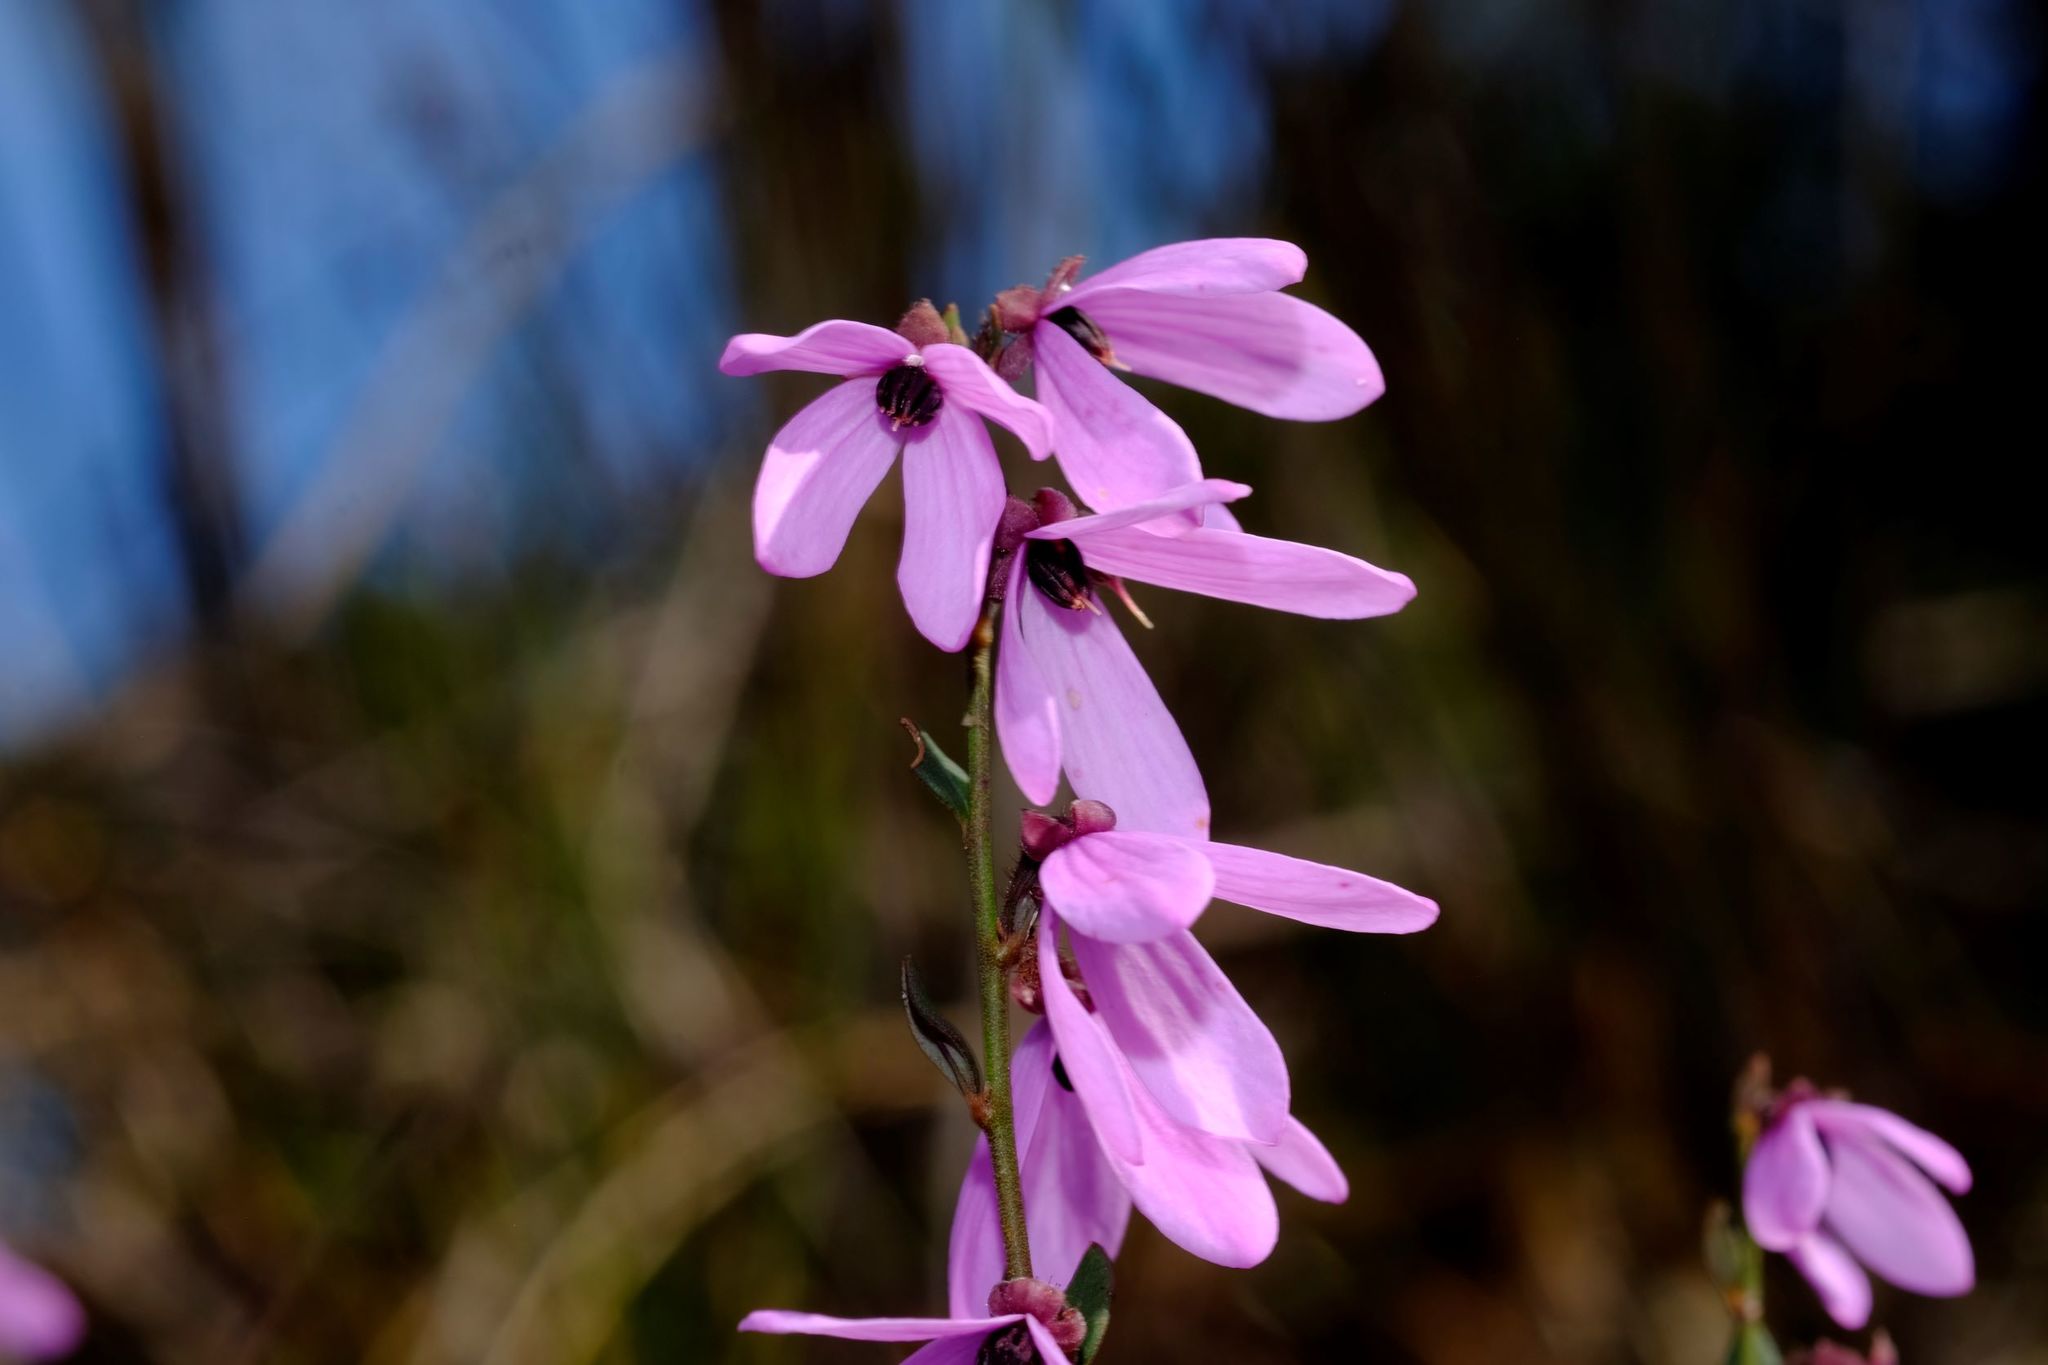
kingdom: Plantae
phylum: Tracheophyta
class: Magnoliopsida
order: Oxalidales
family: Elaeocarpaceae
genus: Tetratheca
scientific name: Tetratheca ciliata
